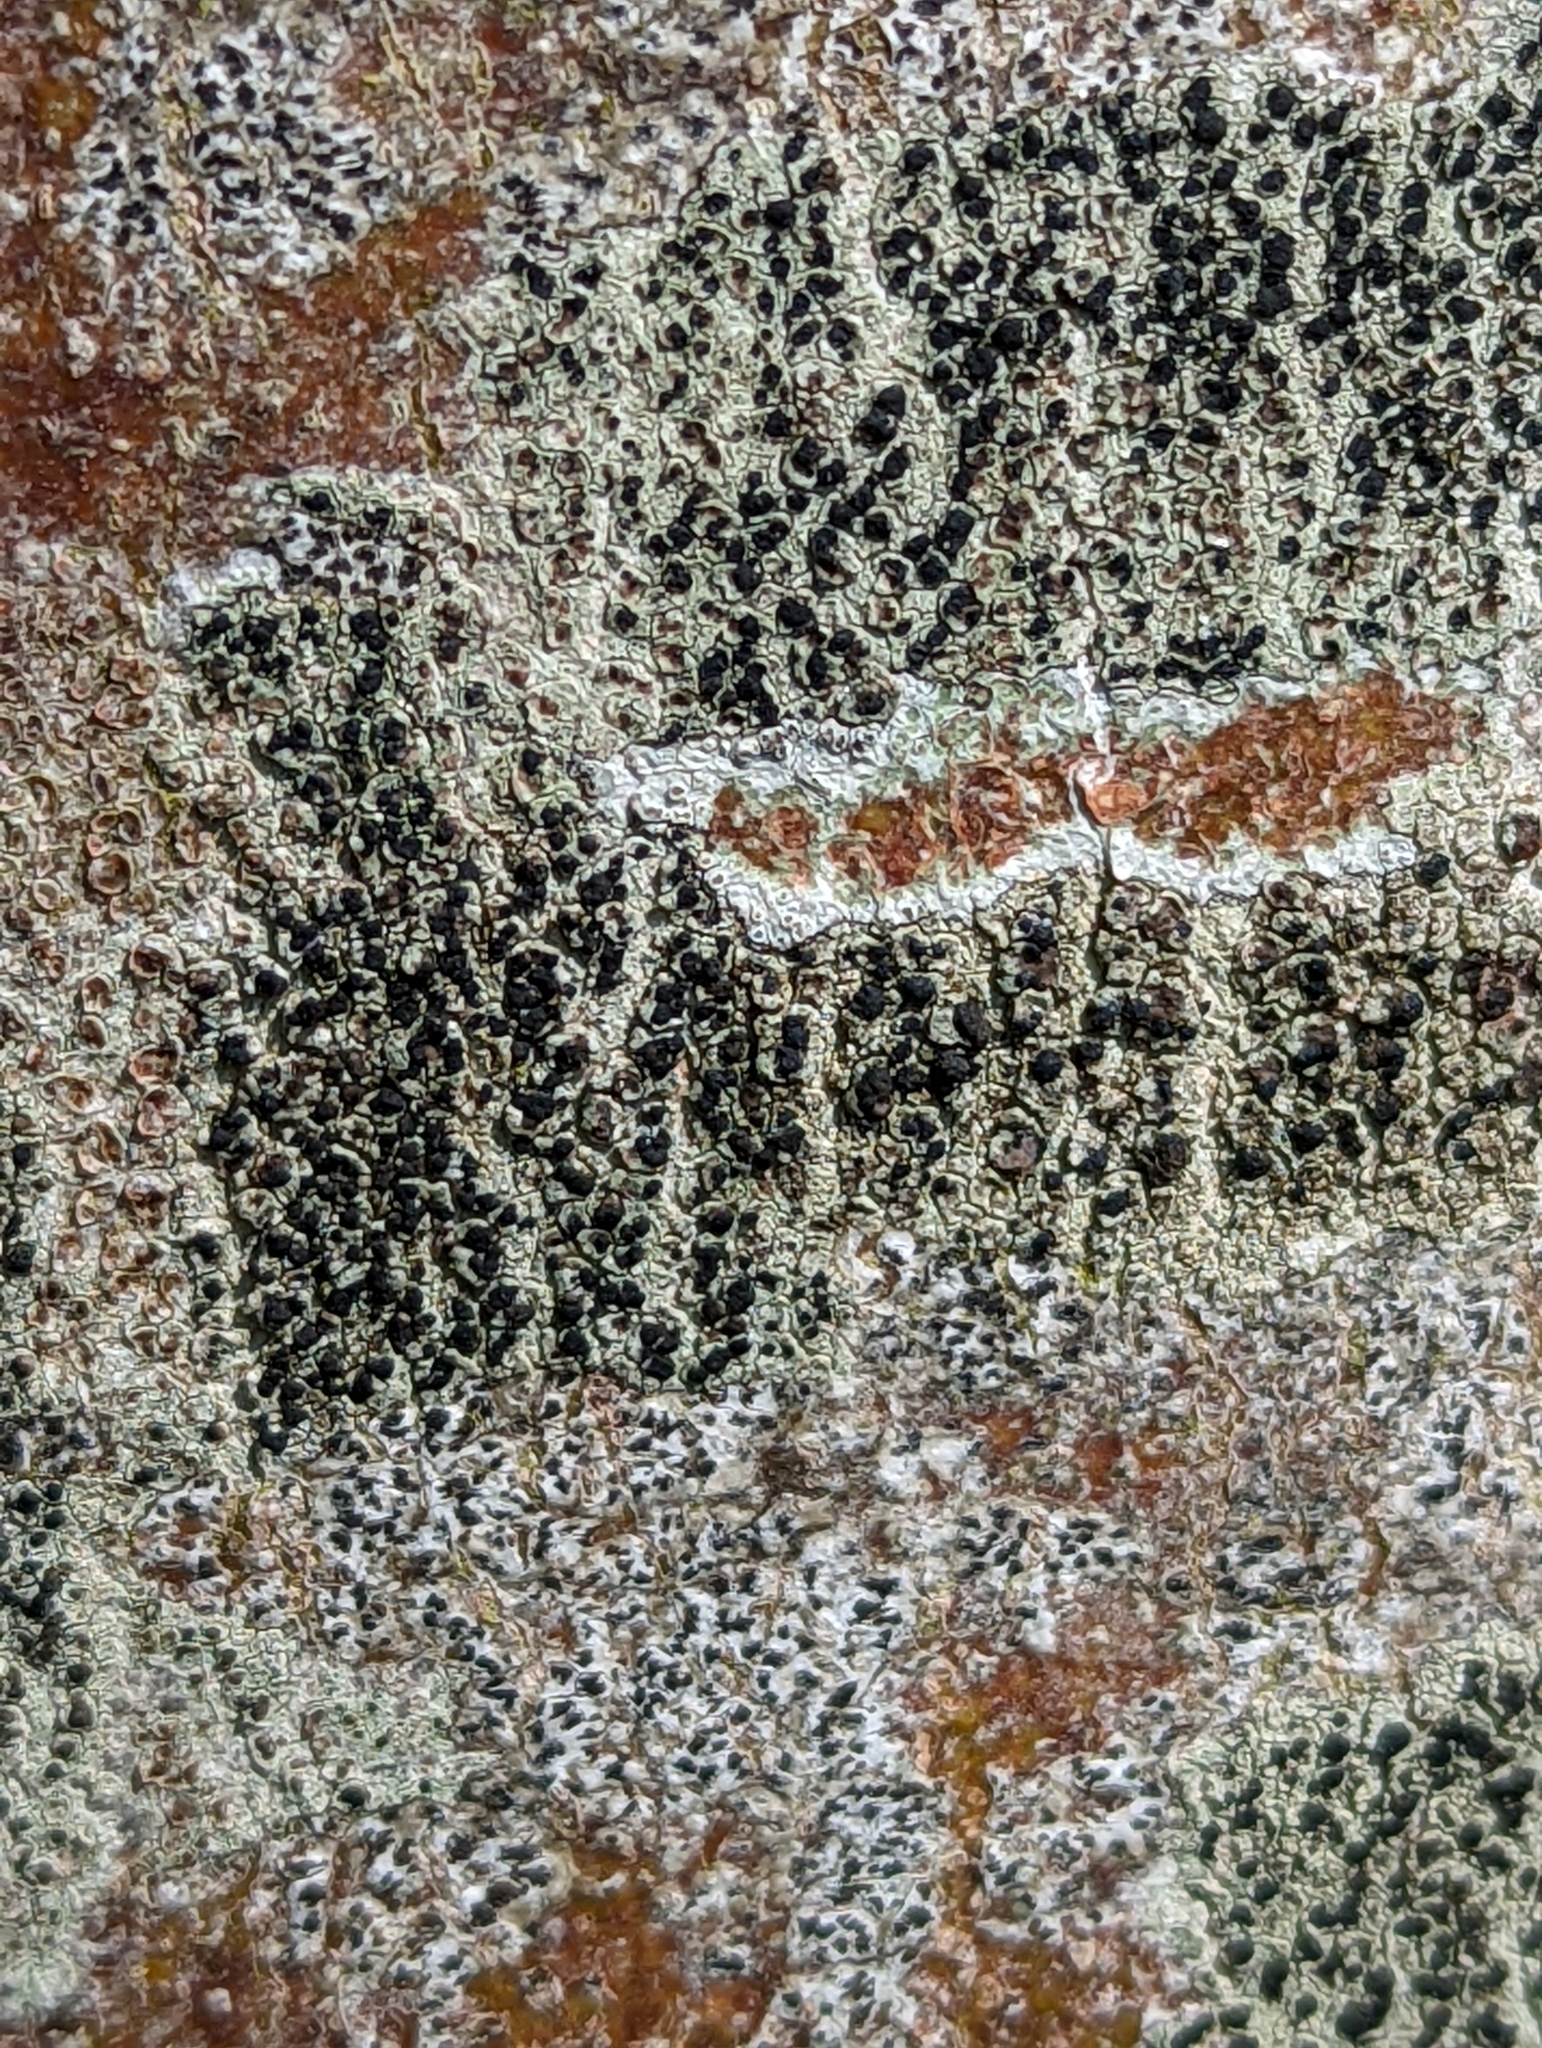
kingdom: Fungi
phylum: Ascomycota
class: Lecanoromycetes
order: Lecanorales
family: Lecanoraceae
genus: Lecidella
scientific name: Lecidella elaeochroma
